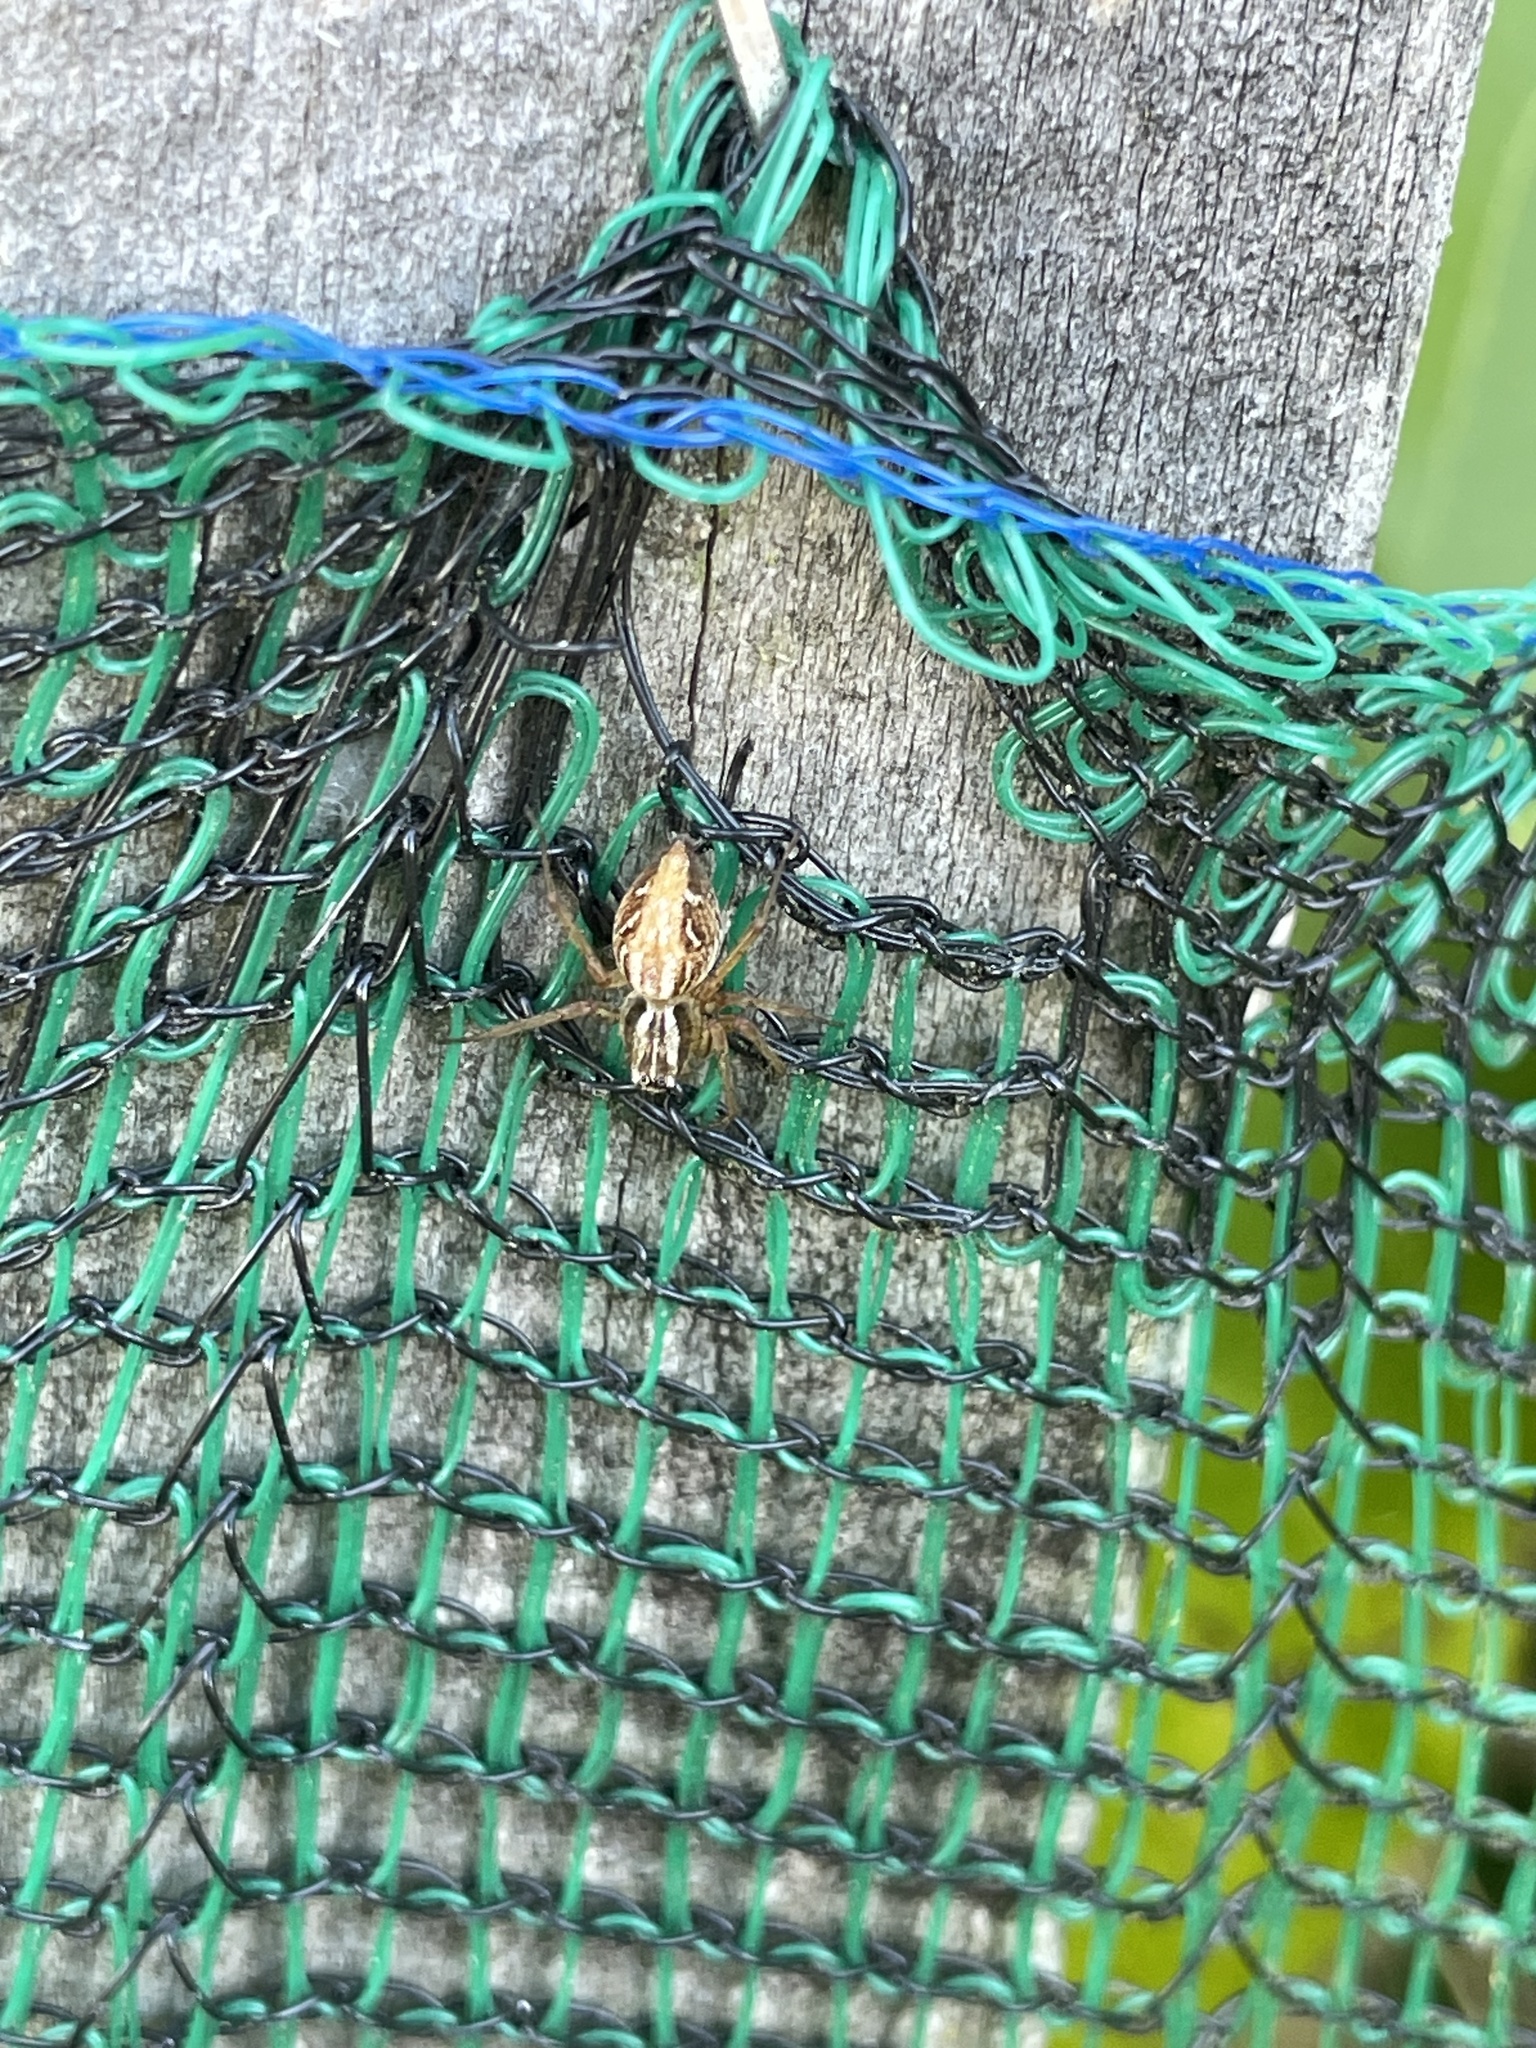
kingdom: Animalia
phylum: Arthropoda
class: Arachnida
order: Araneae
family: Oxyopidae
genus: Oxyopes
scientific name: Oxyopes gracilipes
